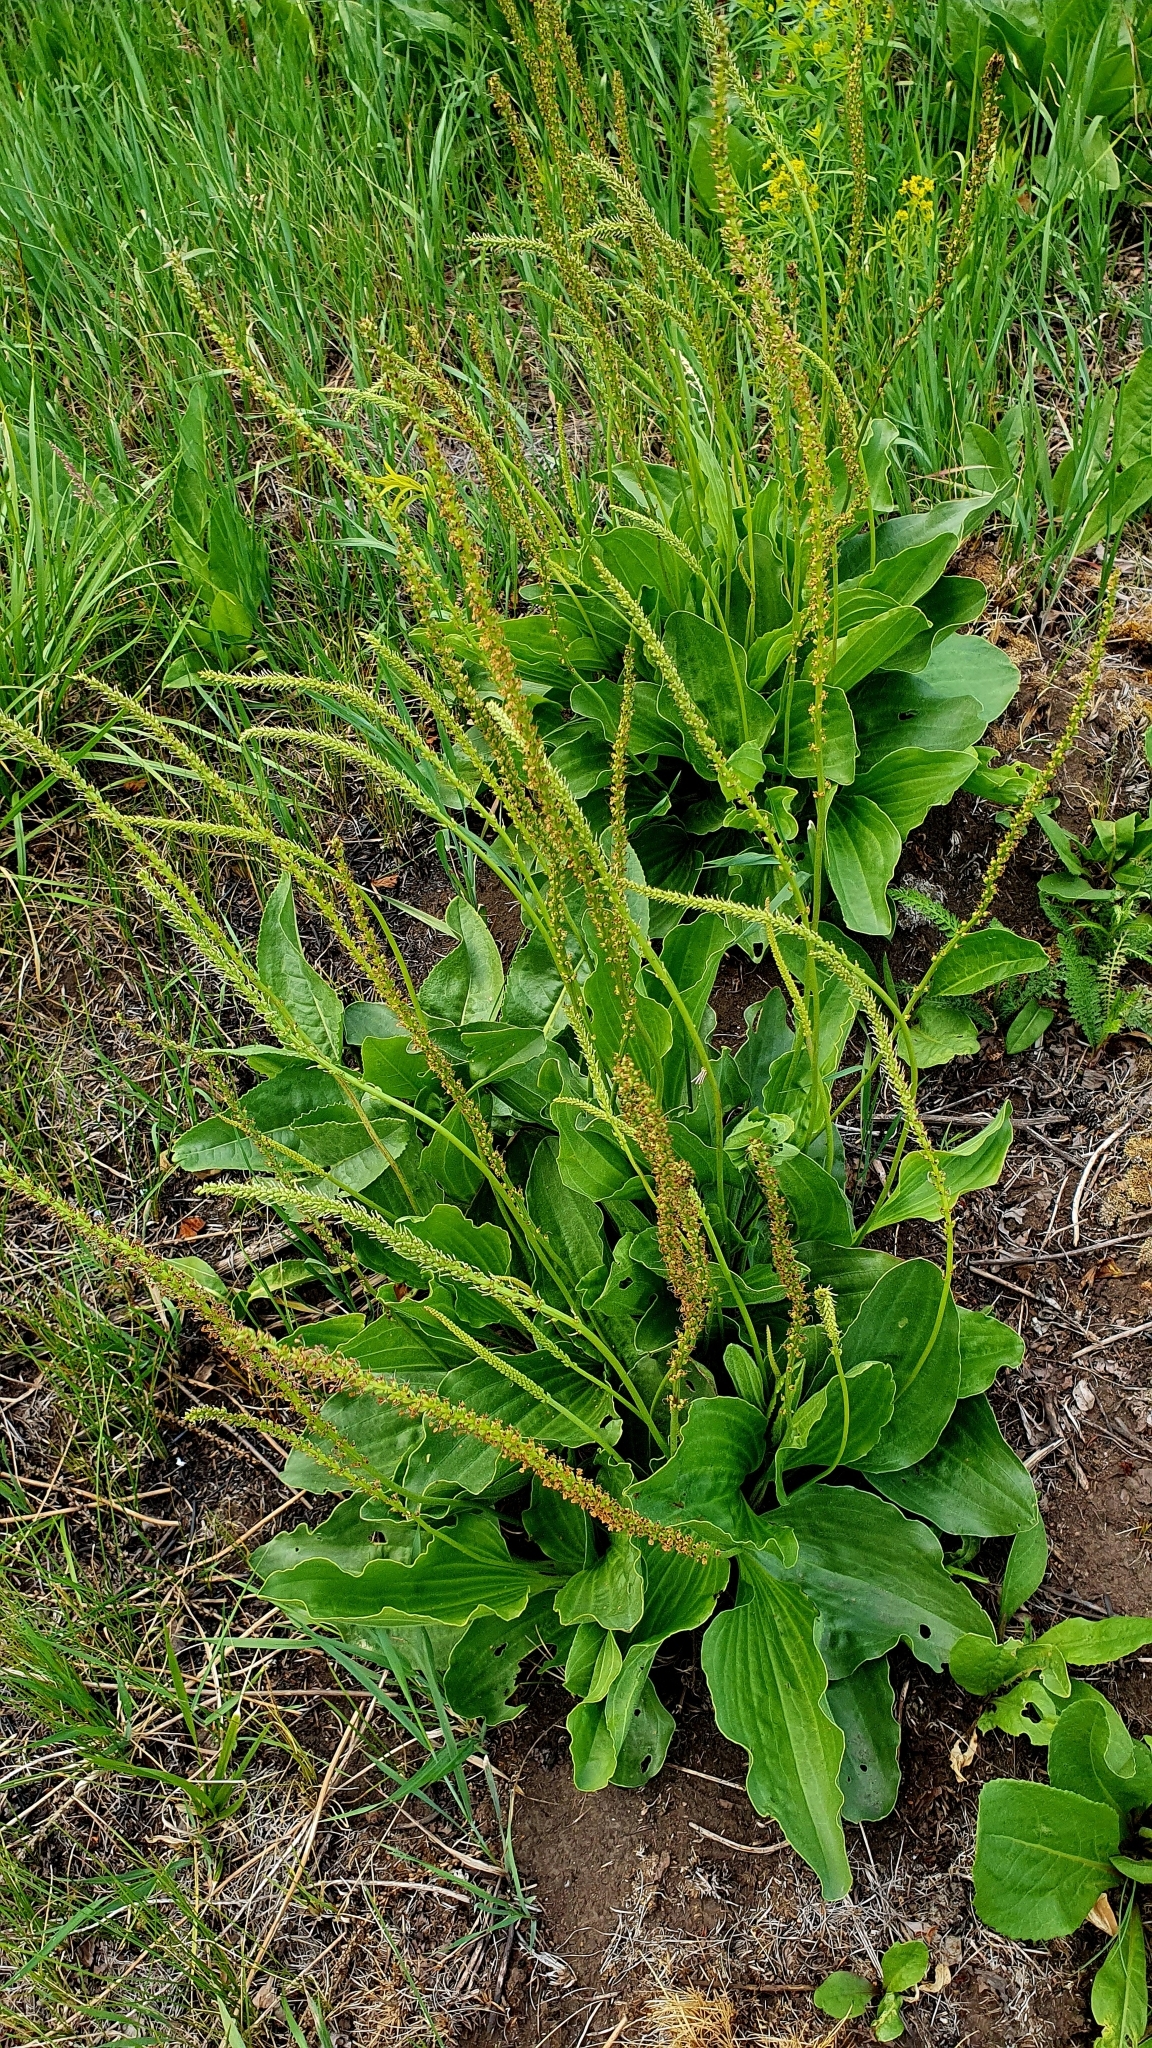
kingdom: Plantae
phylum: Tracheophyta
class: Magnoliopsida
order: Lamiales
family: Plantaginaceae
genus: Plantago
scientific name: Plantago cornuti
